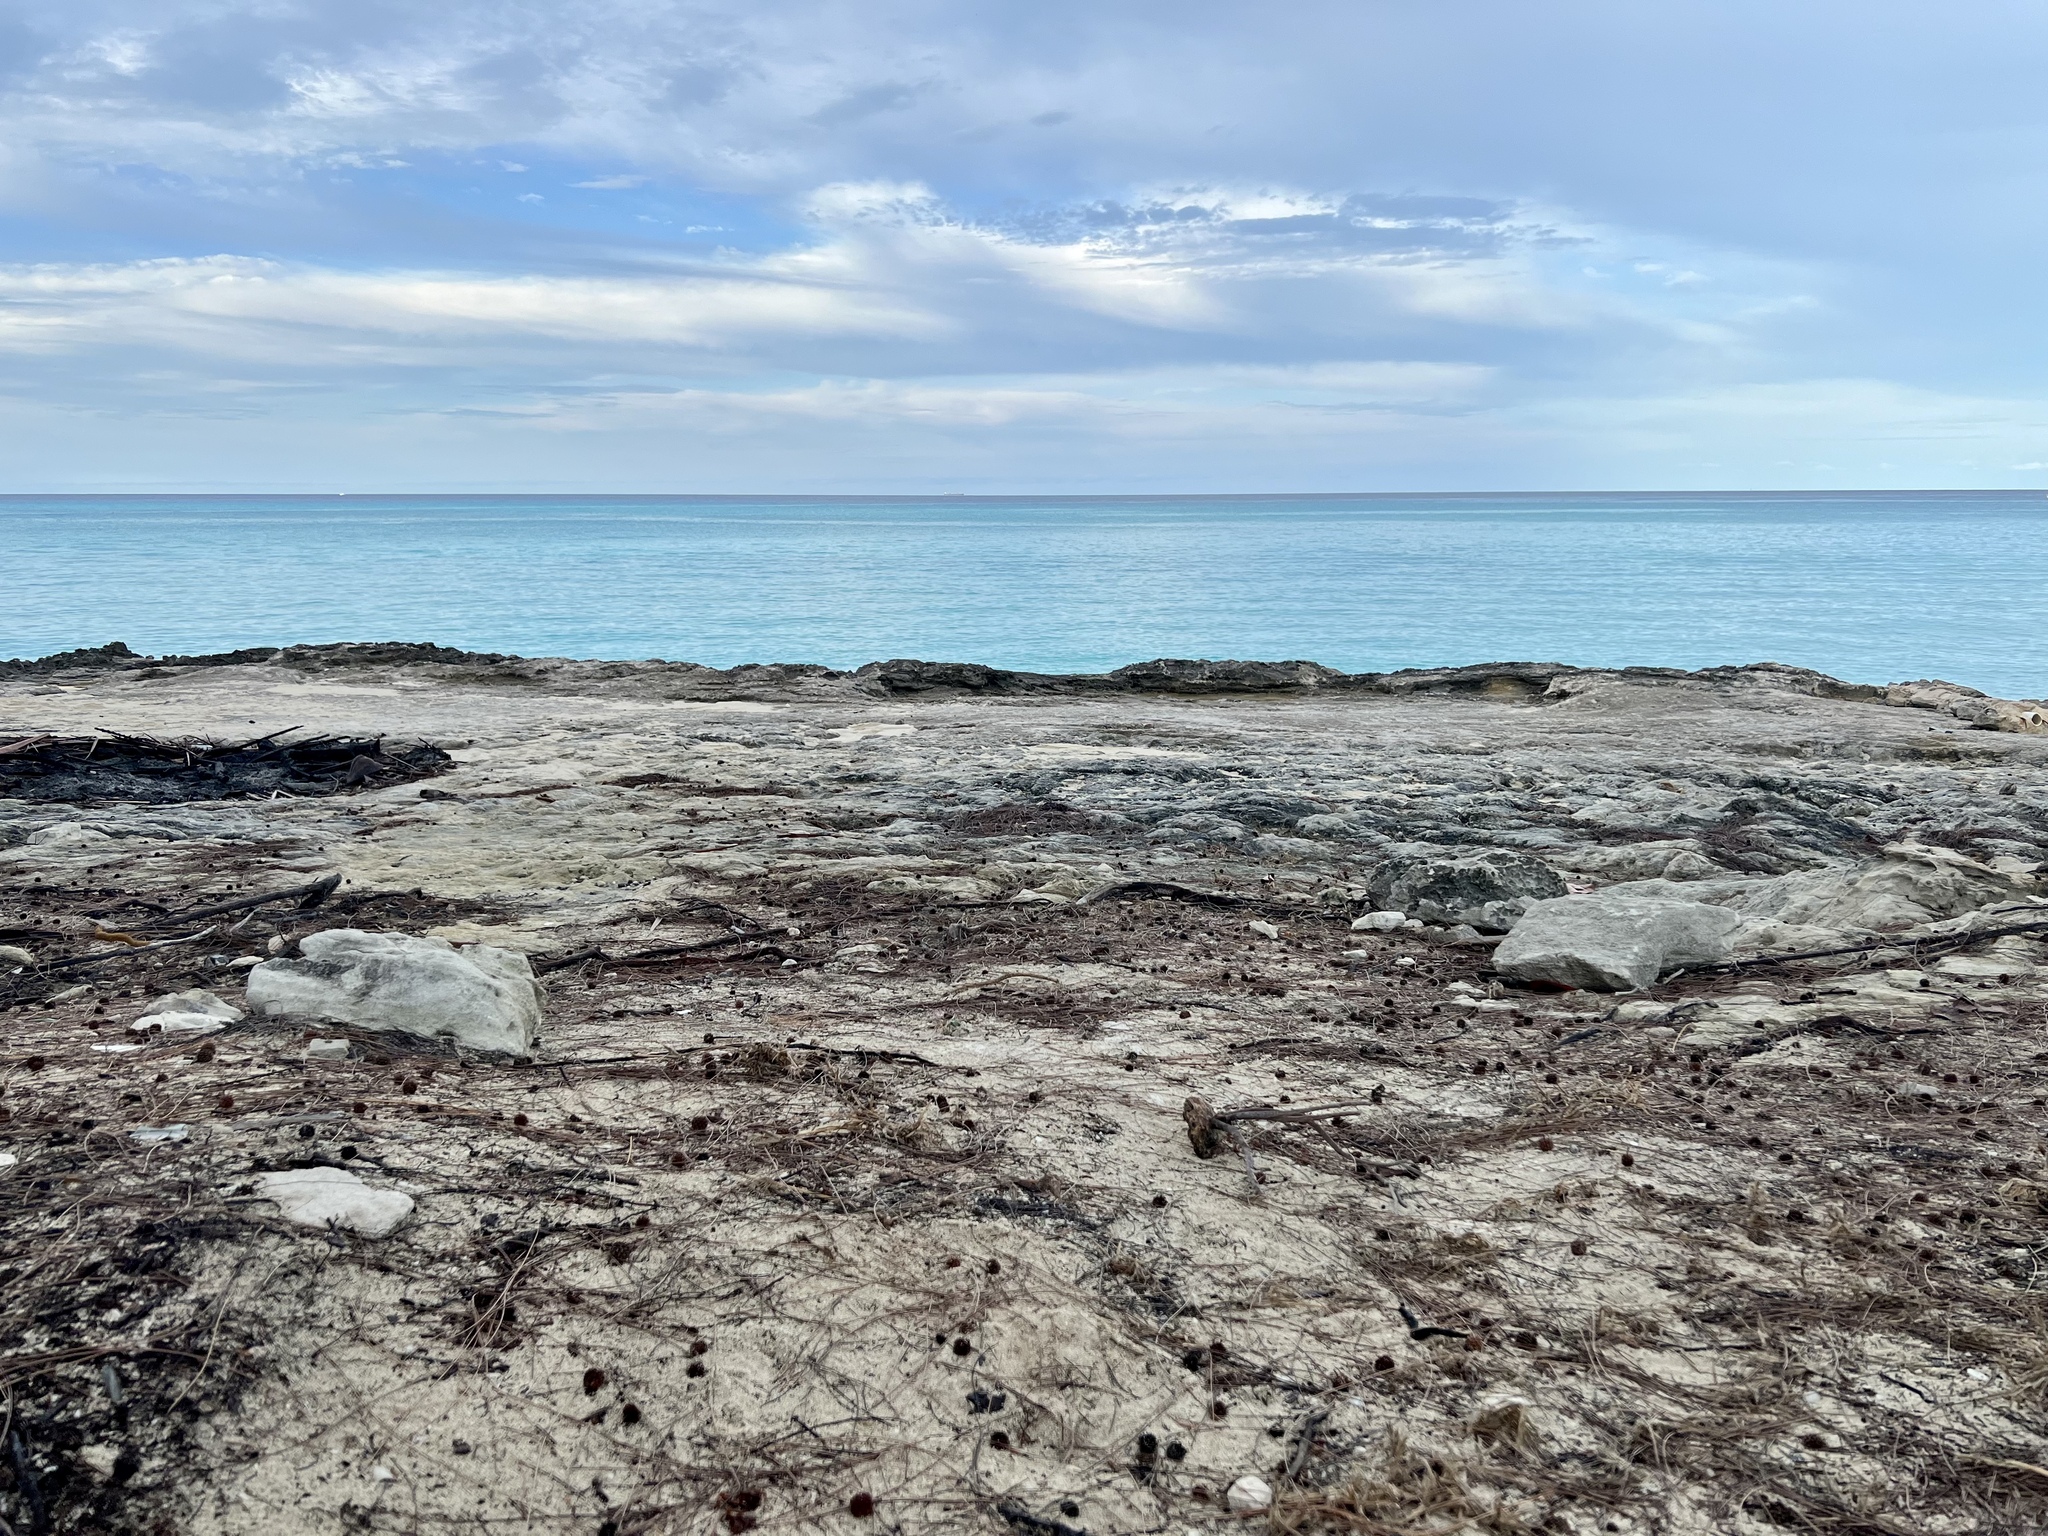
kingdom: Animalia
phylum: Arthropoda
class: Malacostraca
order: Decapoda
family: Gecarcinidae
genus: Gecarcinus
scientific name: Gecarcinus lateralis
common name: Bermuda land crab
